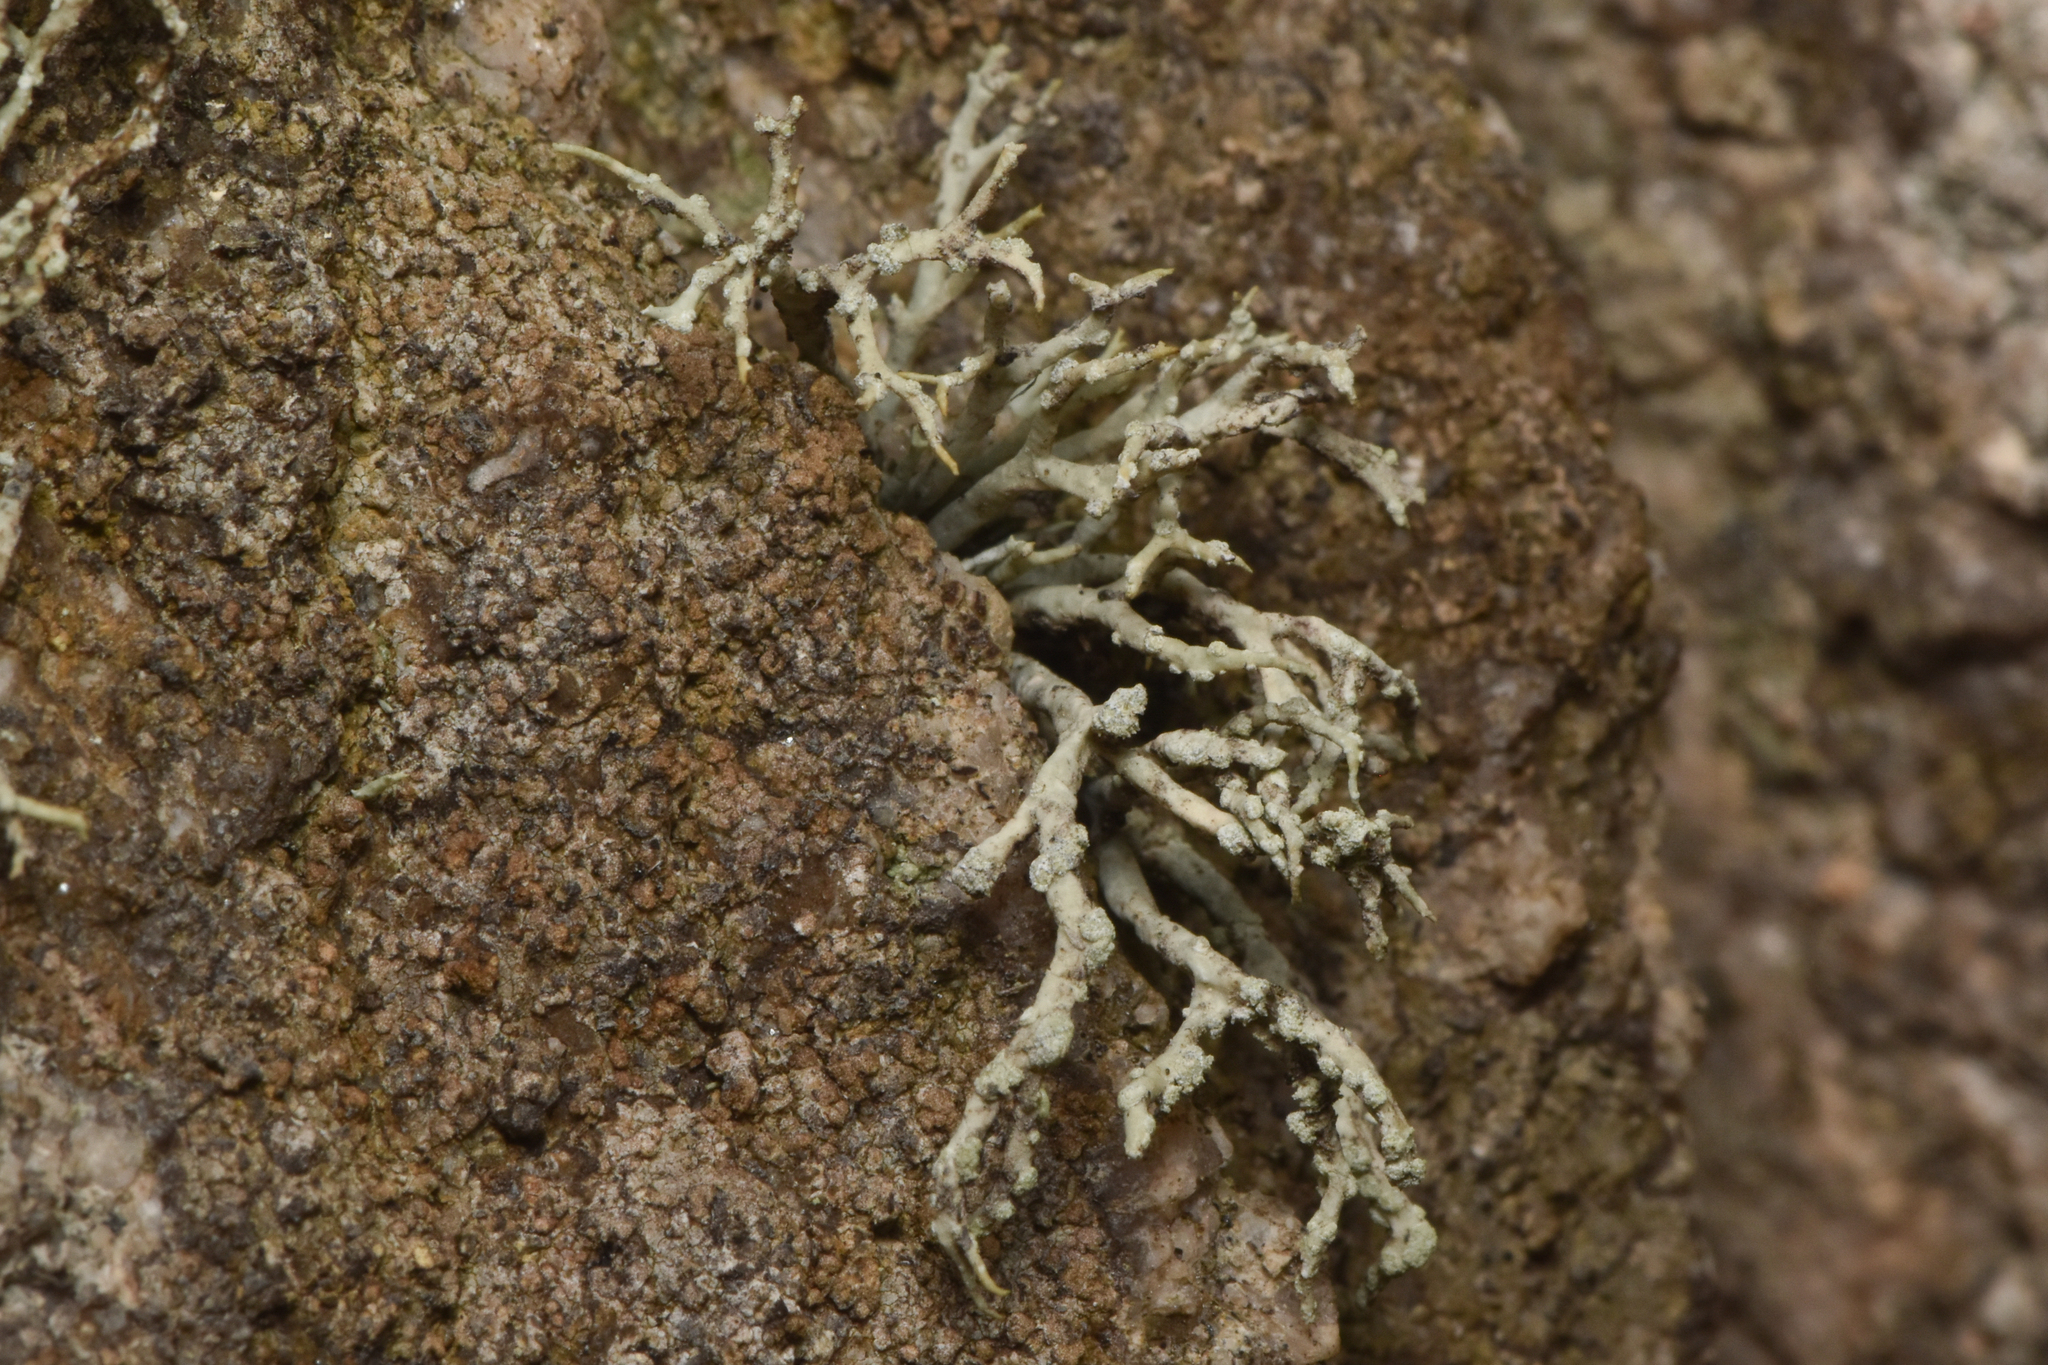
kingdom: Fungi
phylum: Ascomycota
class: Lecanoromycetes
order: Lecanorales
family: Ramalinaceae
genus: Niebla
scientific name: Niebla cephalota
